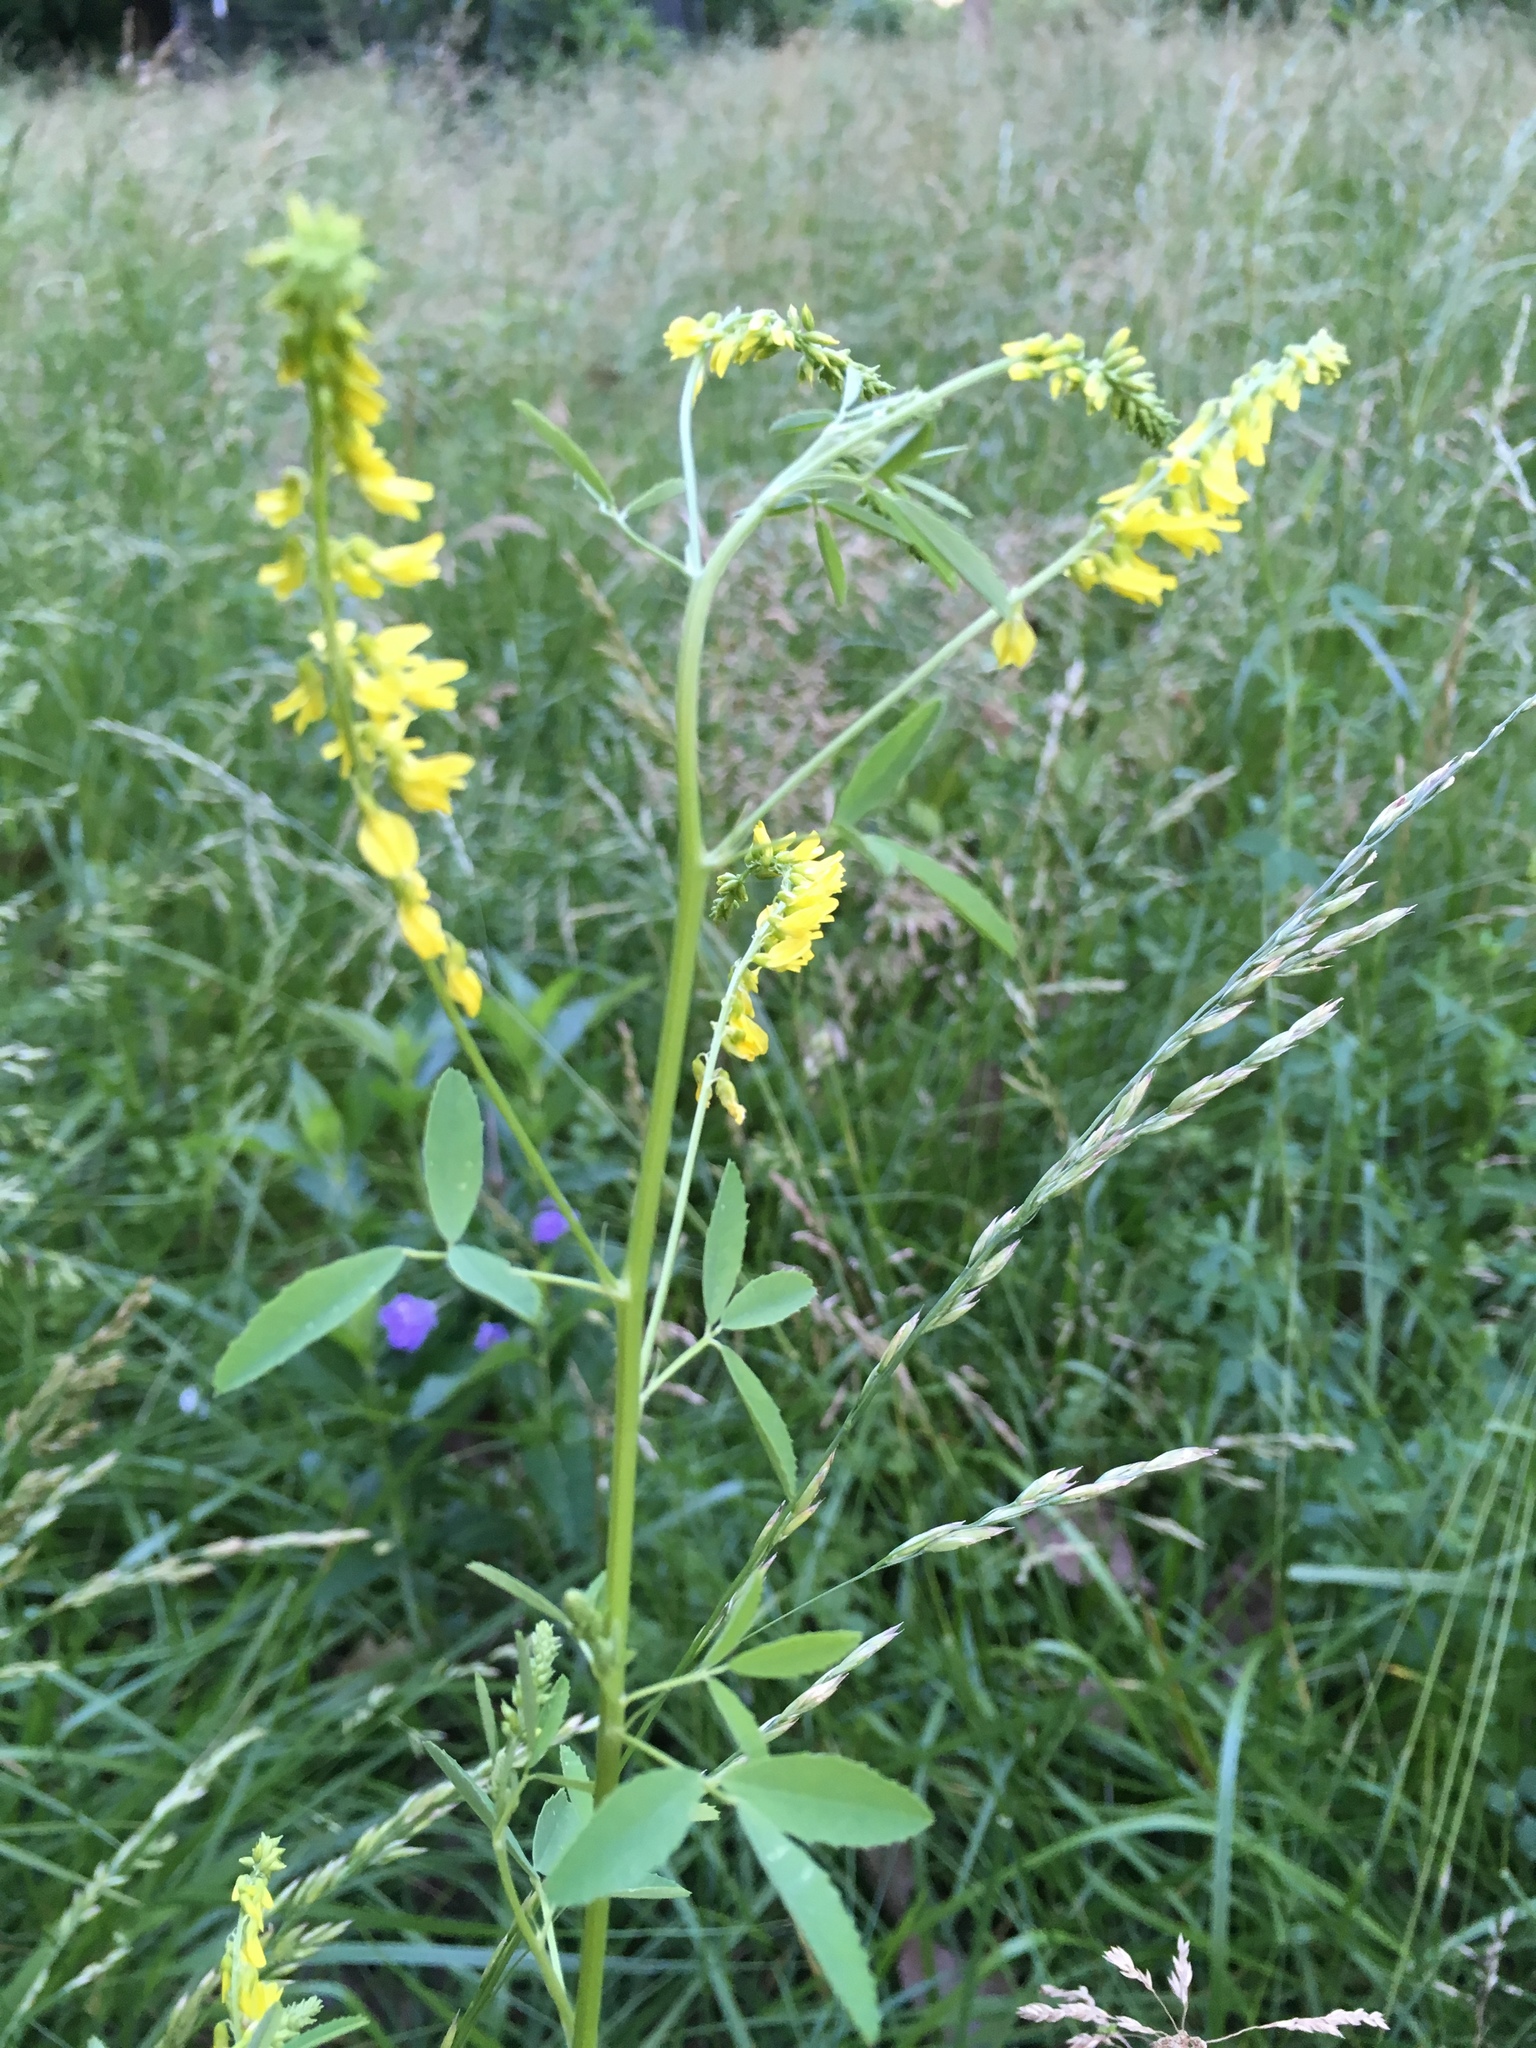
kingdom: Plantae
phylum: Tracheophyta
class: Magnoliopsida
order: Fabales
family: Fabaceae
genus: Melilotus
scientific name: Melilotus officinalis
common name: Sweetclover
